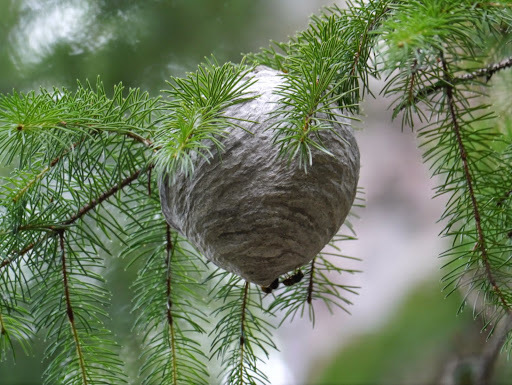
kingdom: Animalia
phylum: Arthropoda
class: Insecta
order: Hymenoptera
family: Vespidae
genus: Dolichovespula
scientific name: Dolichovespula
